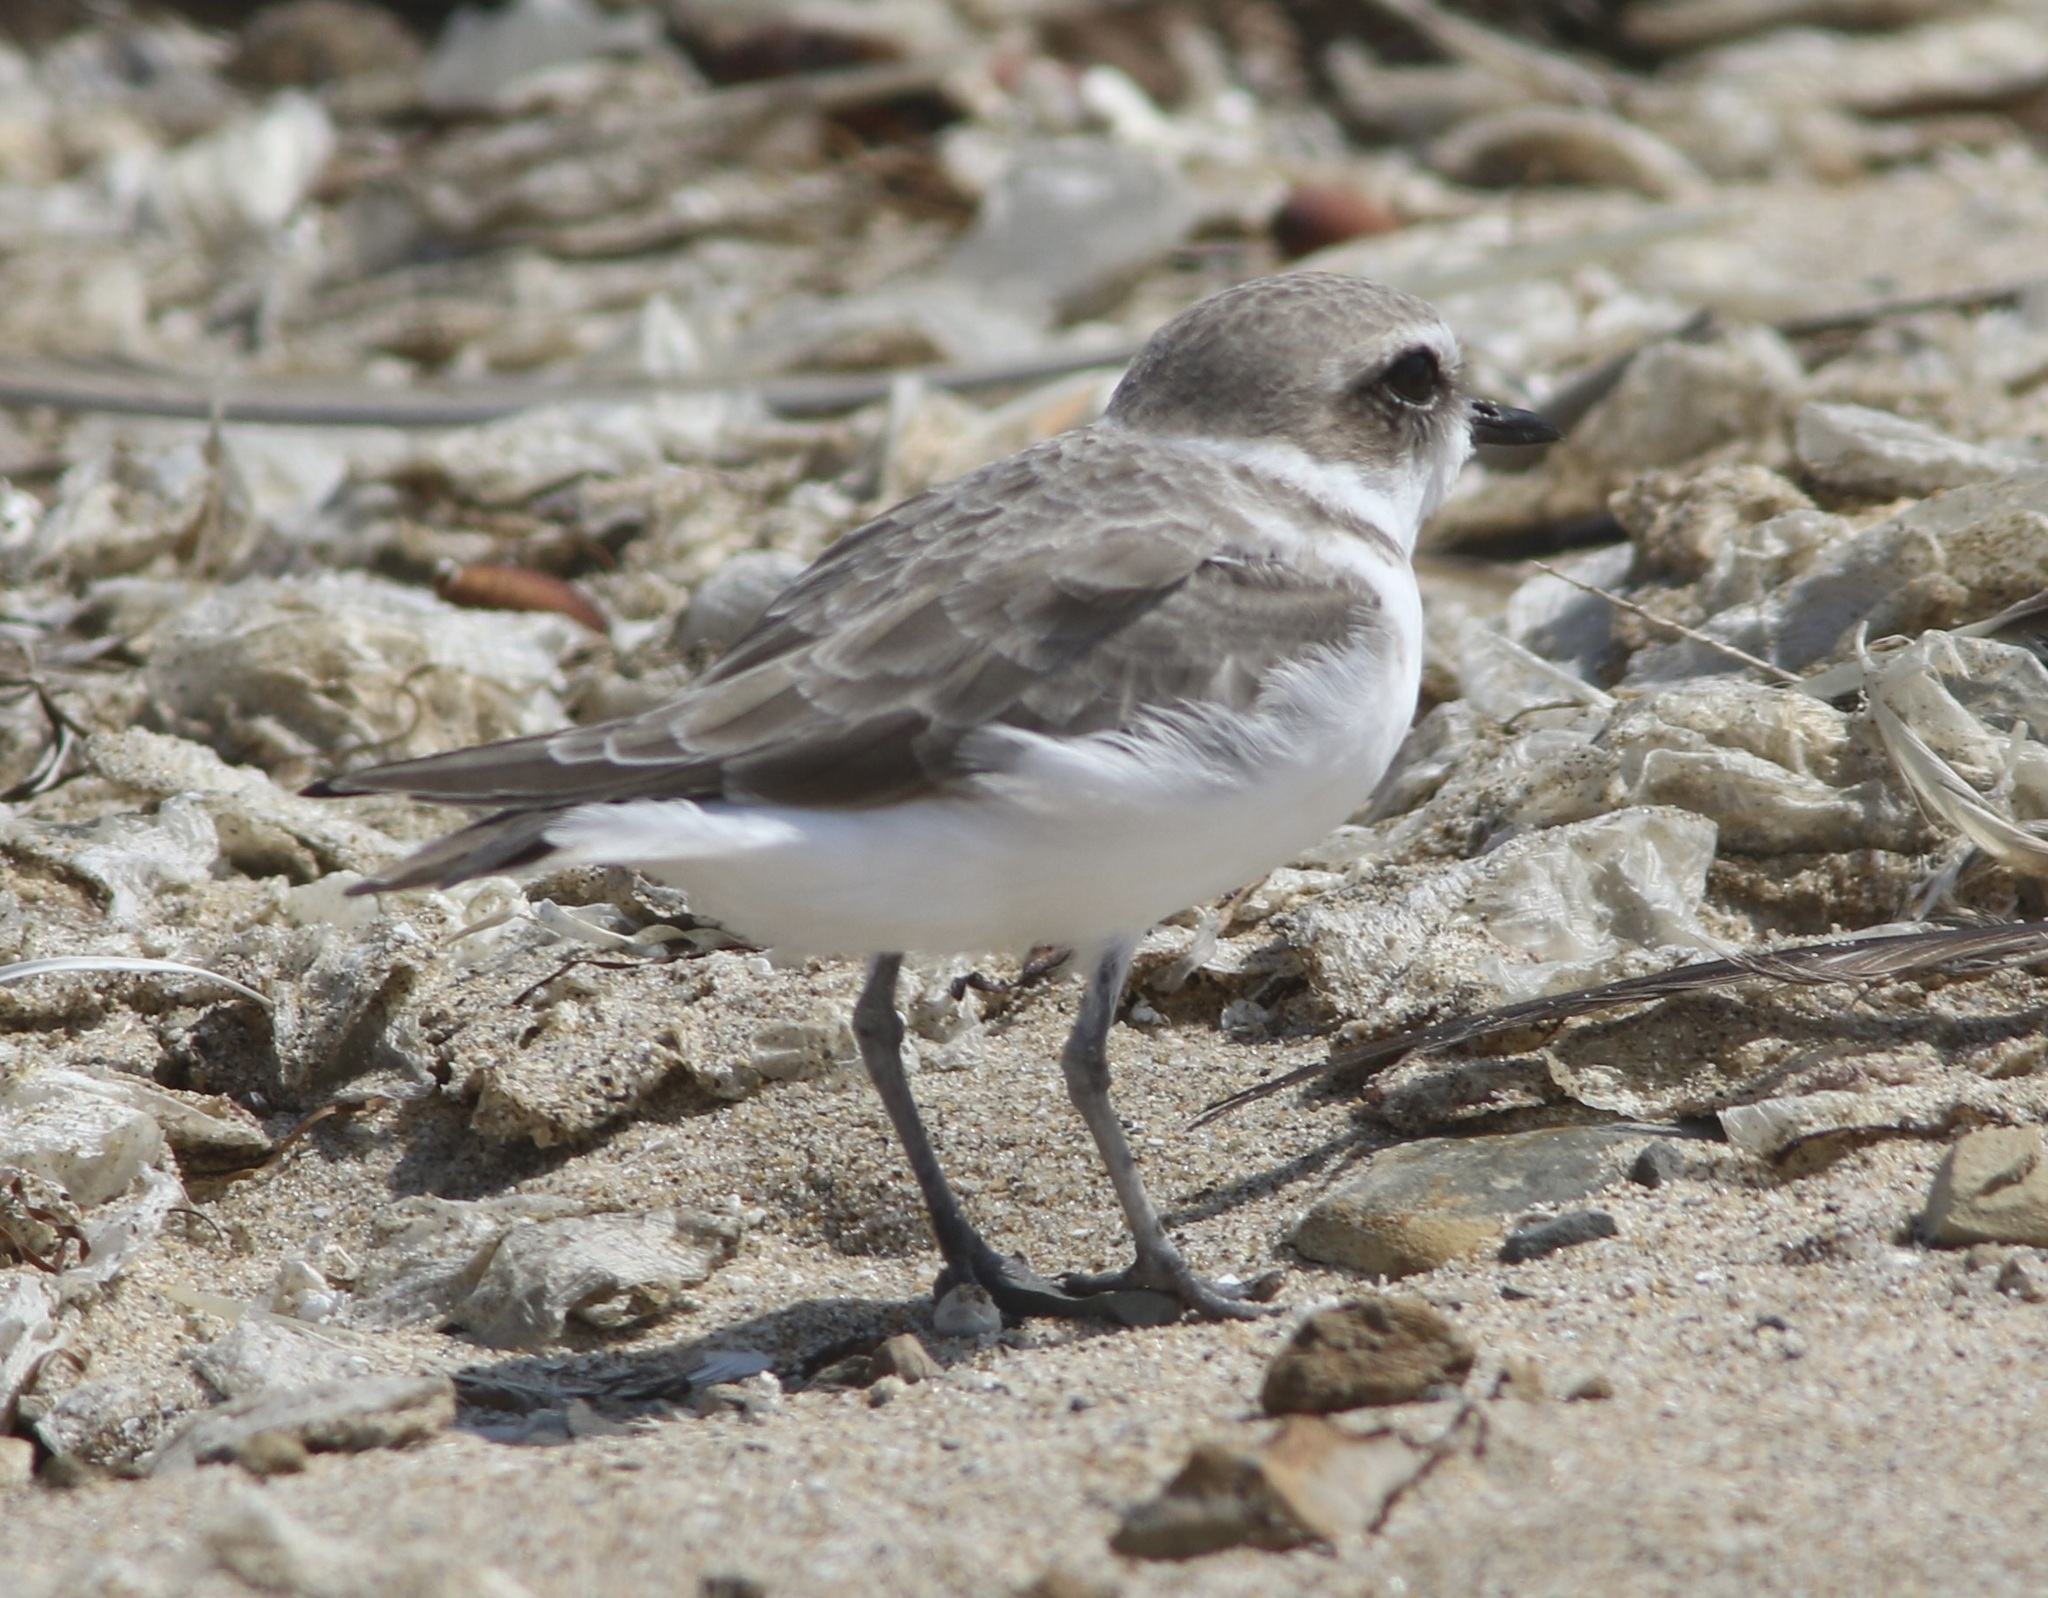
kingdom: Animalia
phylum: Chordata
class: Aves
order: Charadriiformes
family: Charadriidae
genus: Anarhynchus
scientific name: Anarhynchus
